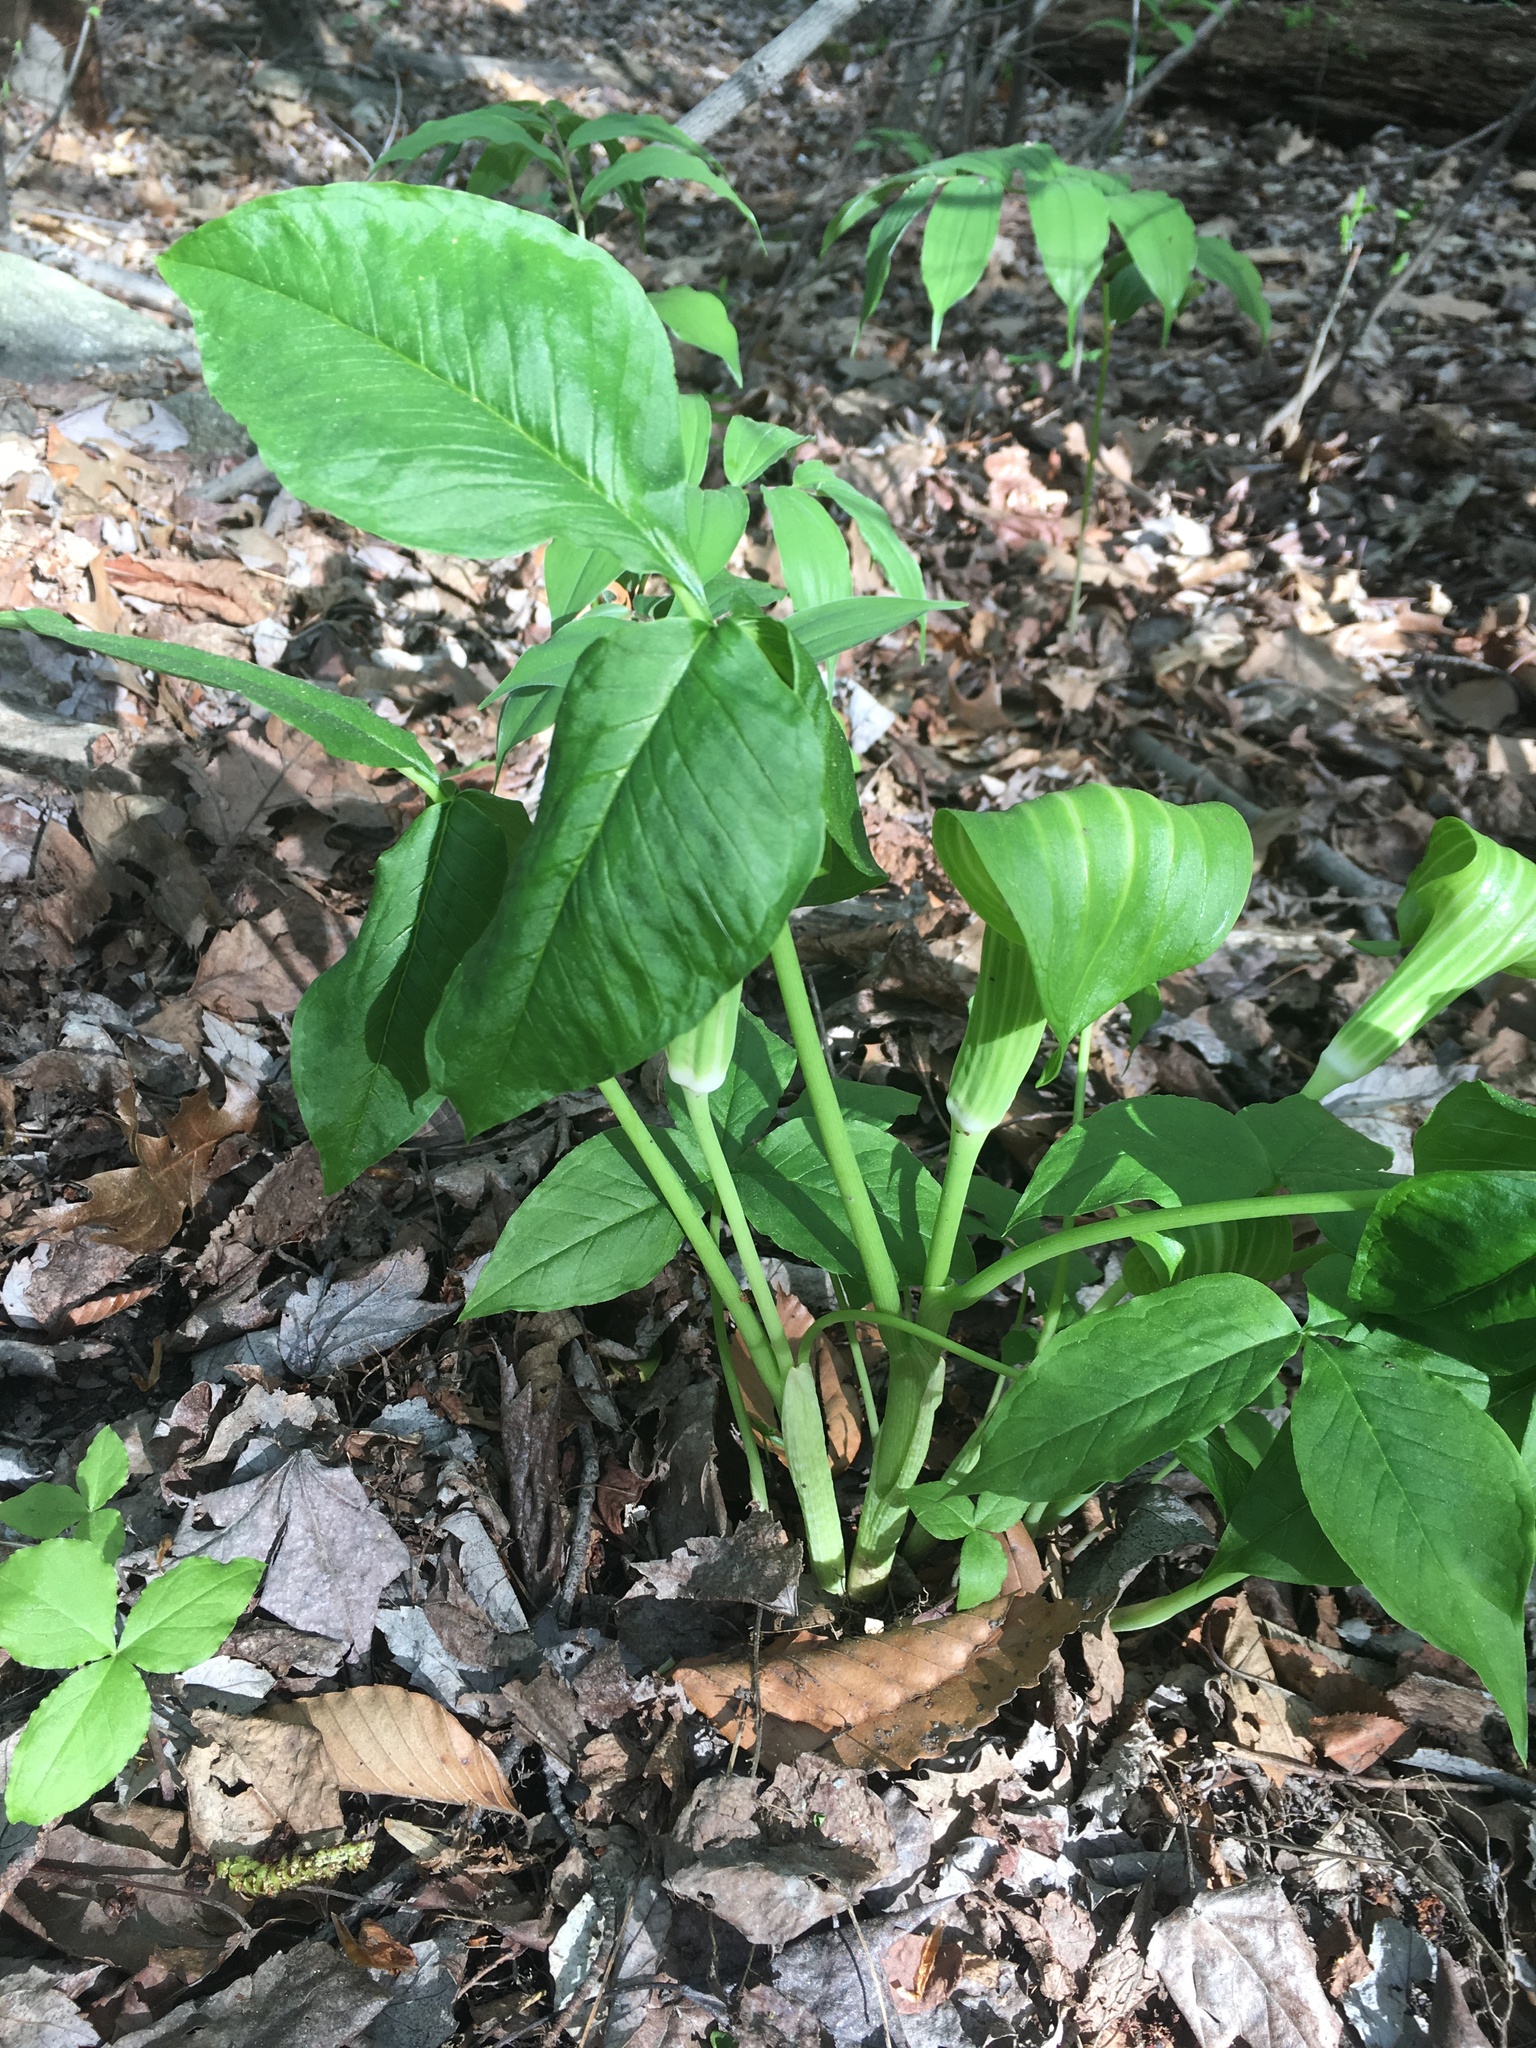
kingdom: Plantae
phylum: Tracheophyta
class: Liliopsida
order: Alismatales
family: Araceae
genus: Arisaema
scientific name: Arisaema triphyllum
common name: Jack-in-the-pulpit
